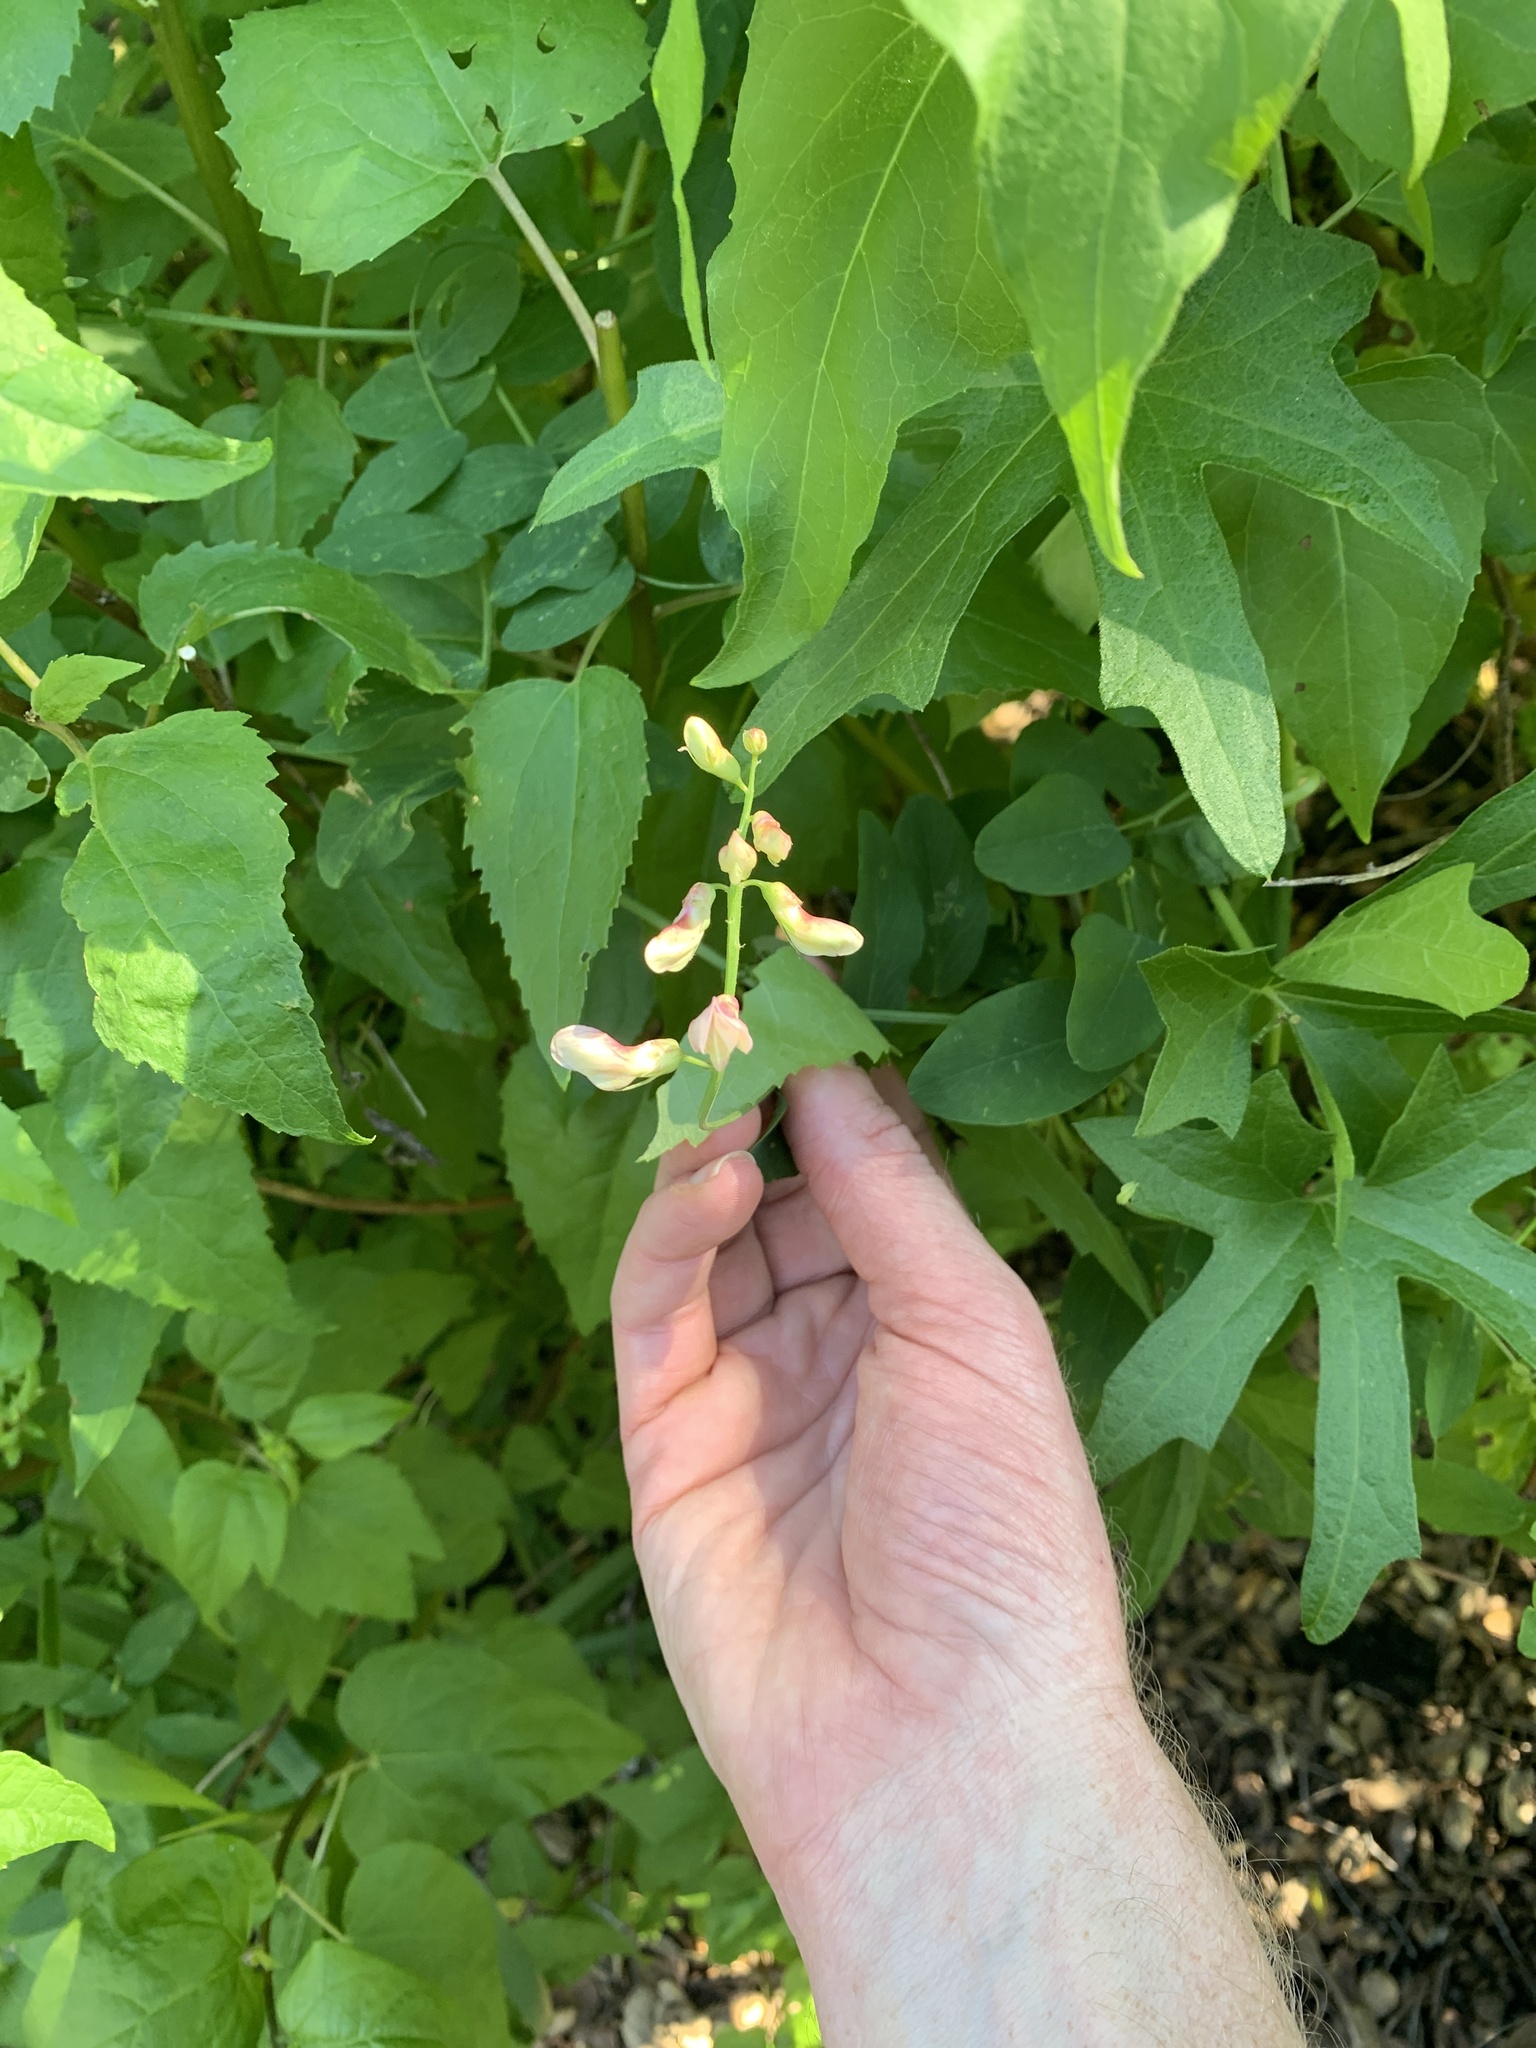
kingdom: Plantae
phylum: Tracheophyta
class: Magnoliopsida
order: Fabales
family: Fabaceae
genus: Lathyrus
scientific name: Lathyrus vestitus
